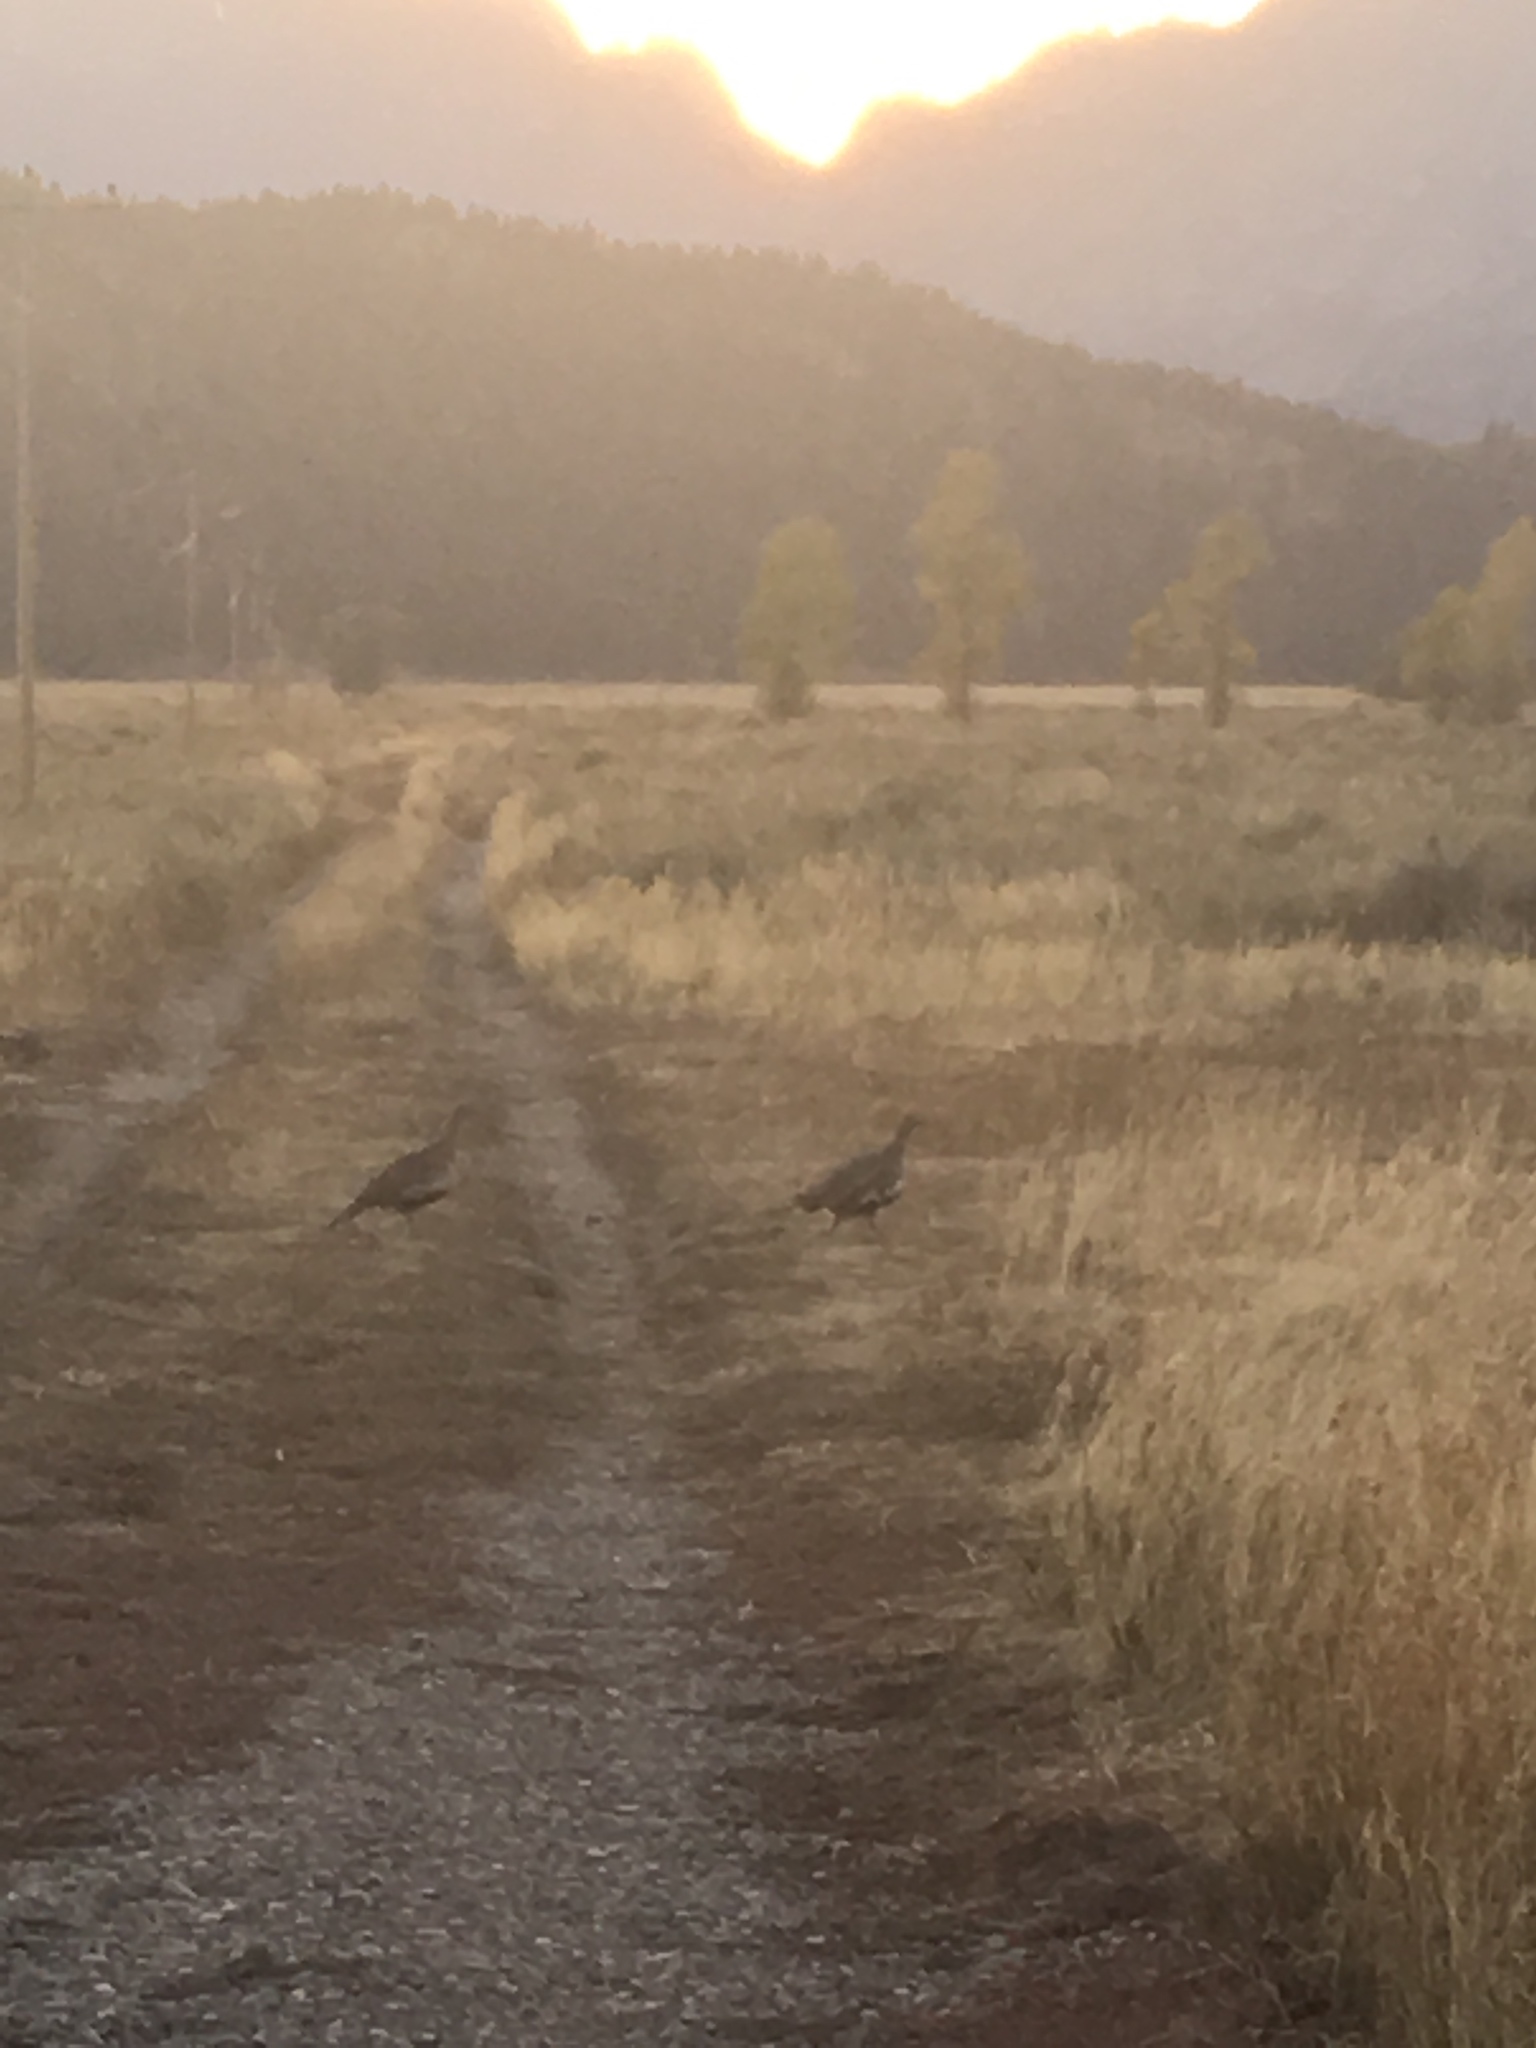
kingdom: Animalia
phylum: Chordata
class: Aves
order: Galliformes
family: Phasianidae
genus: Centrocercus
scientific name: Centrocercus urophasianus
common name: Sage grouse
